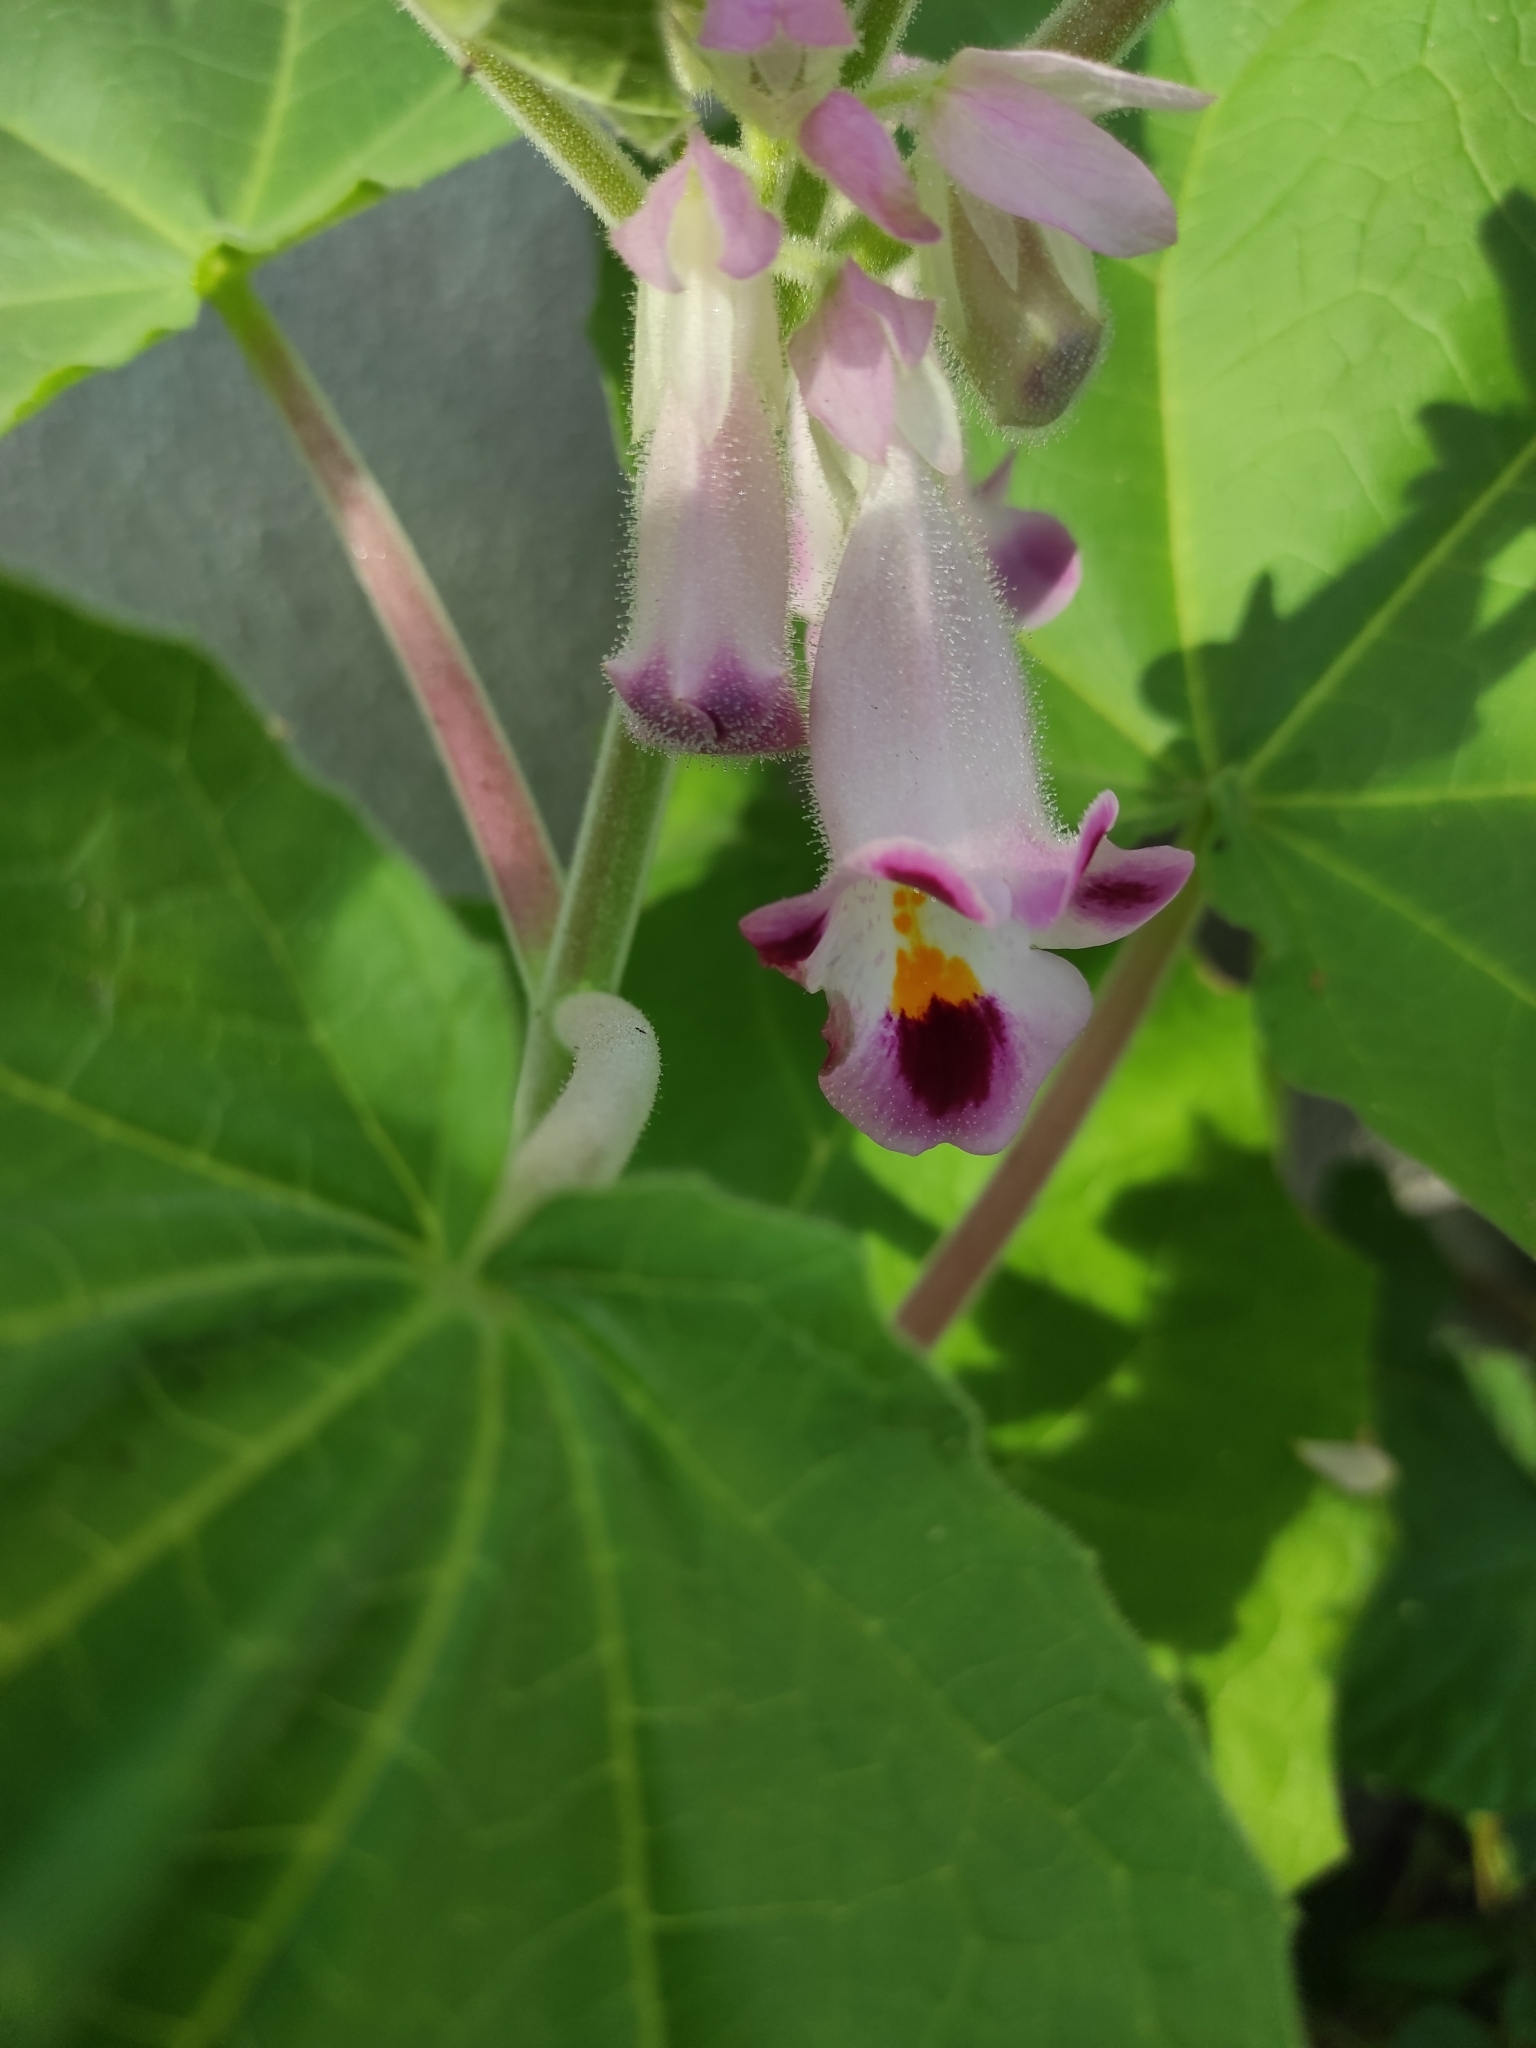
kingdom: Plantae
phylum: Tracheophyta
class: Magnoliopsida
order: Lamiales
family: Martyniaceae
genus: Martynia
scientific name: Martynia annua
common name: Tiger's-claw
